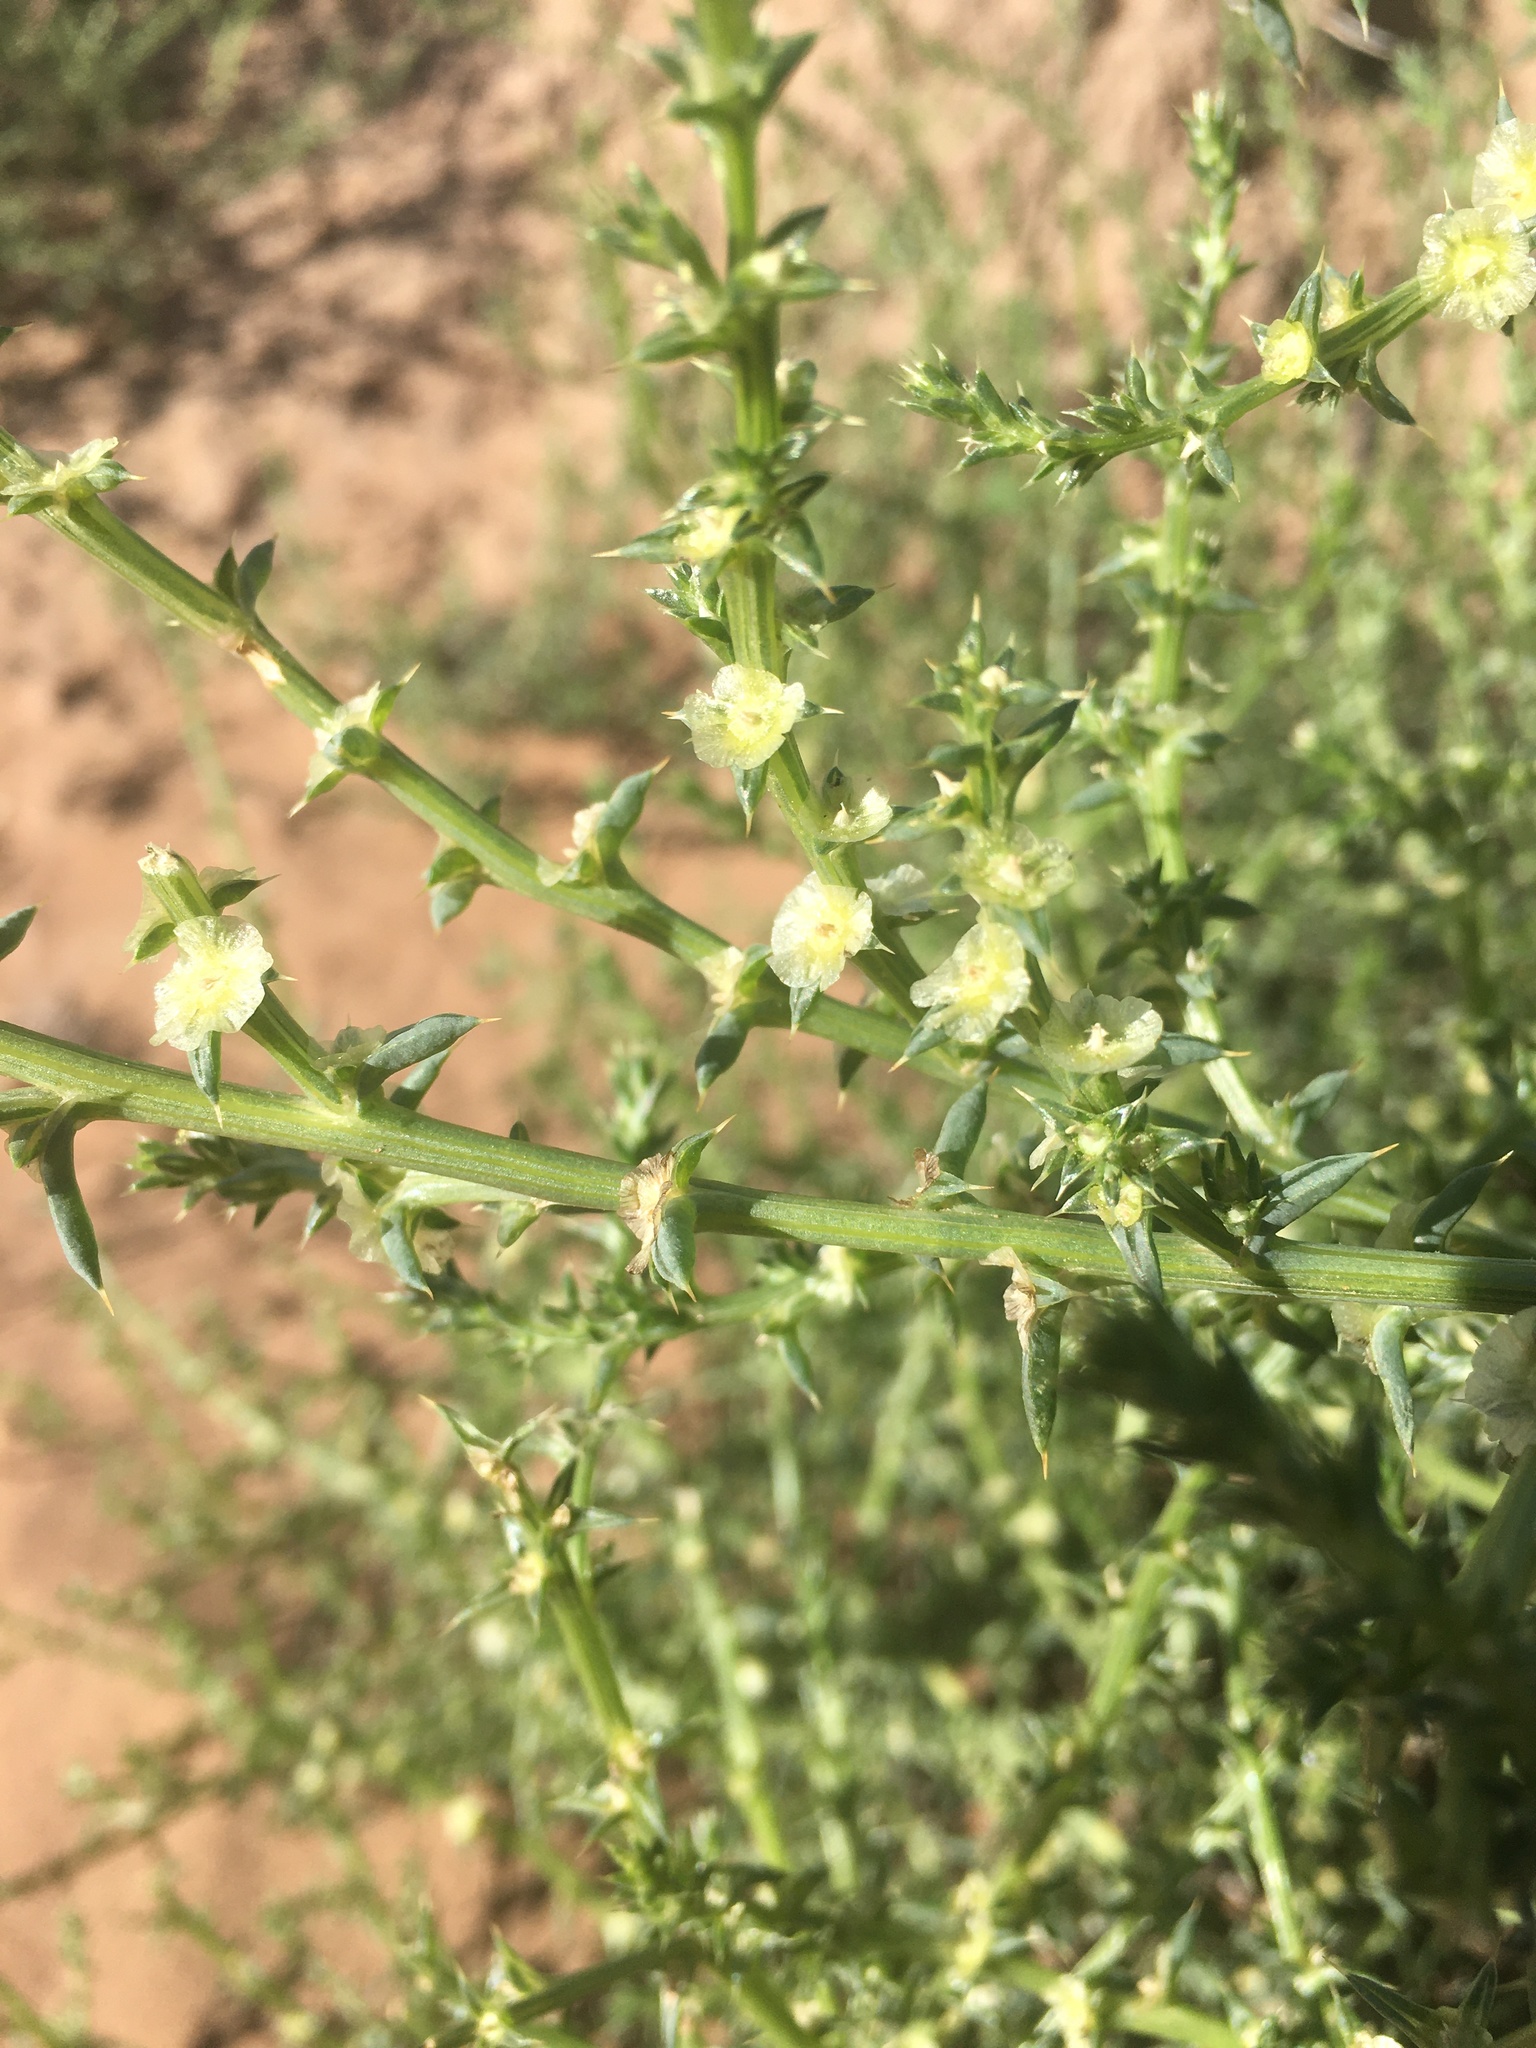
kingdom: Plantae
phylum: Tracheophyta
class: Magnoliopsida
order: Caryophyllales
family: Amaranthaceae
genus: Salsola
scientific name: Salsola tragus
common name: Prickly russian thistle
